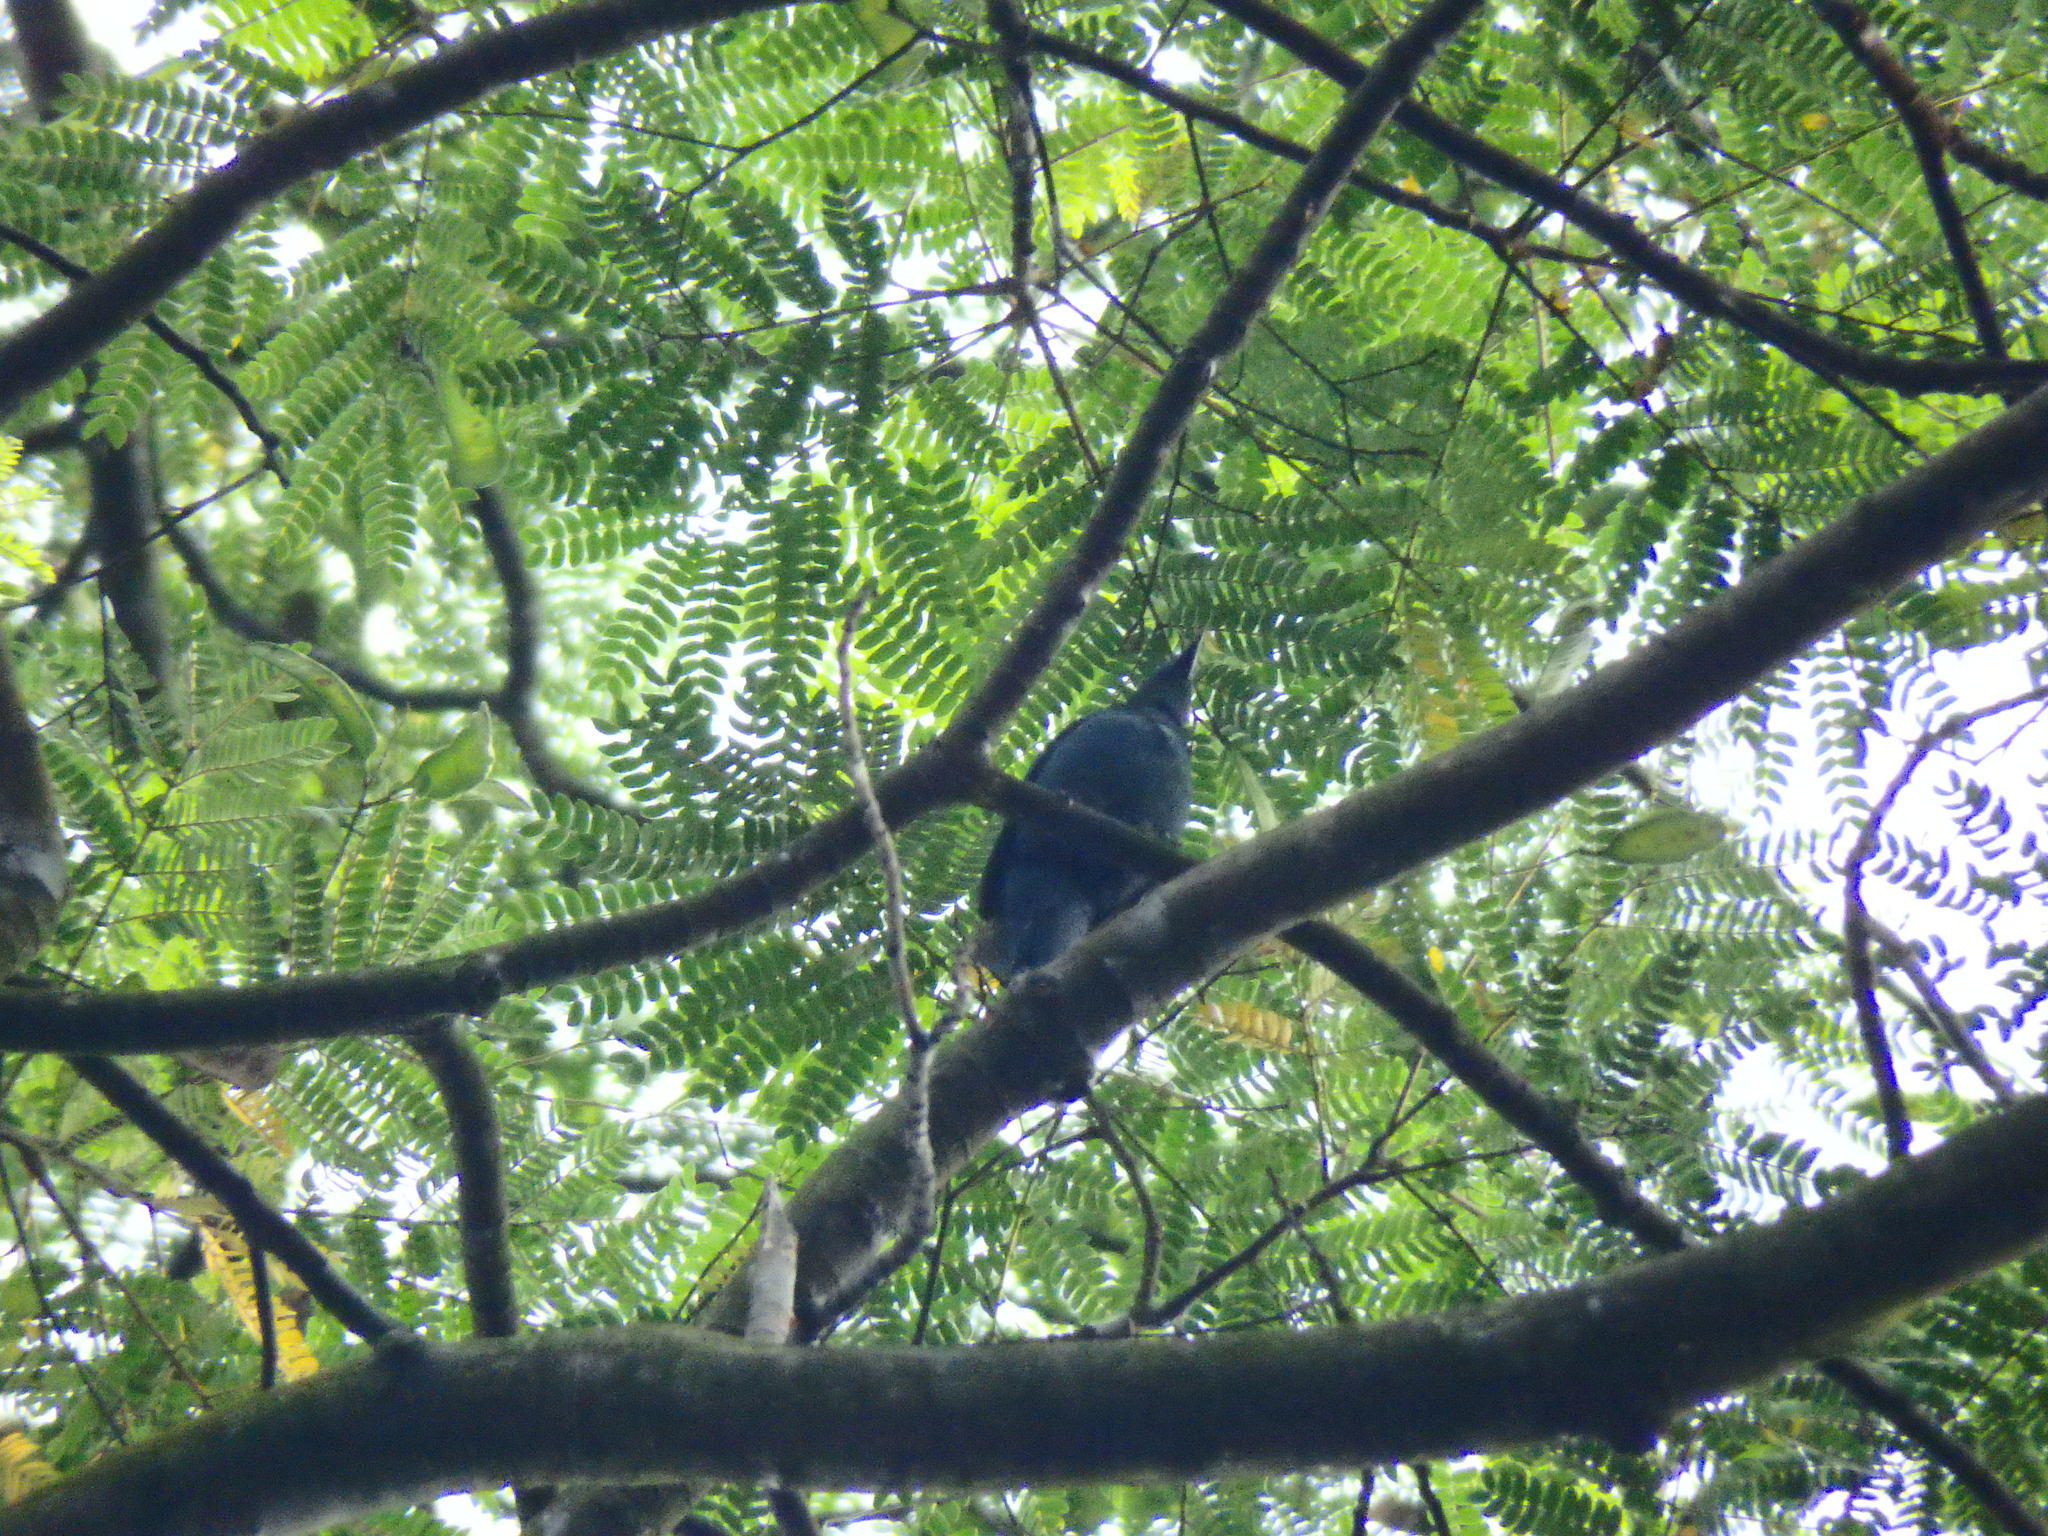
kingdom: Animalia
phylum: Chordata
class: Aves
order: Passeriformes
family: Irenidae
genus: Irena
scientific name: Irena puella
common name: Asian fairy-bluebird
